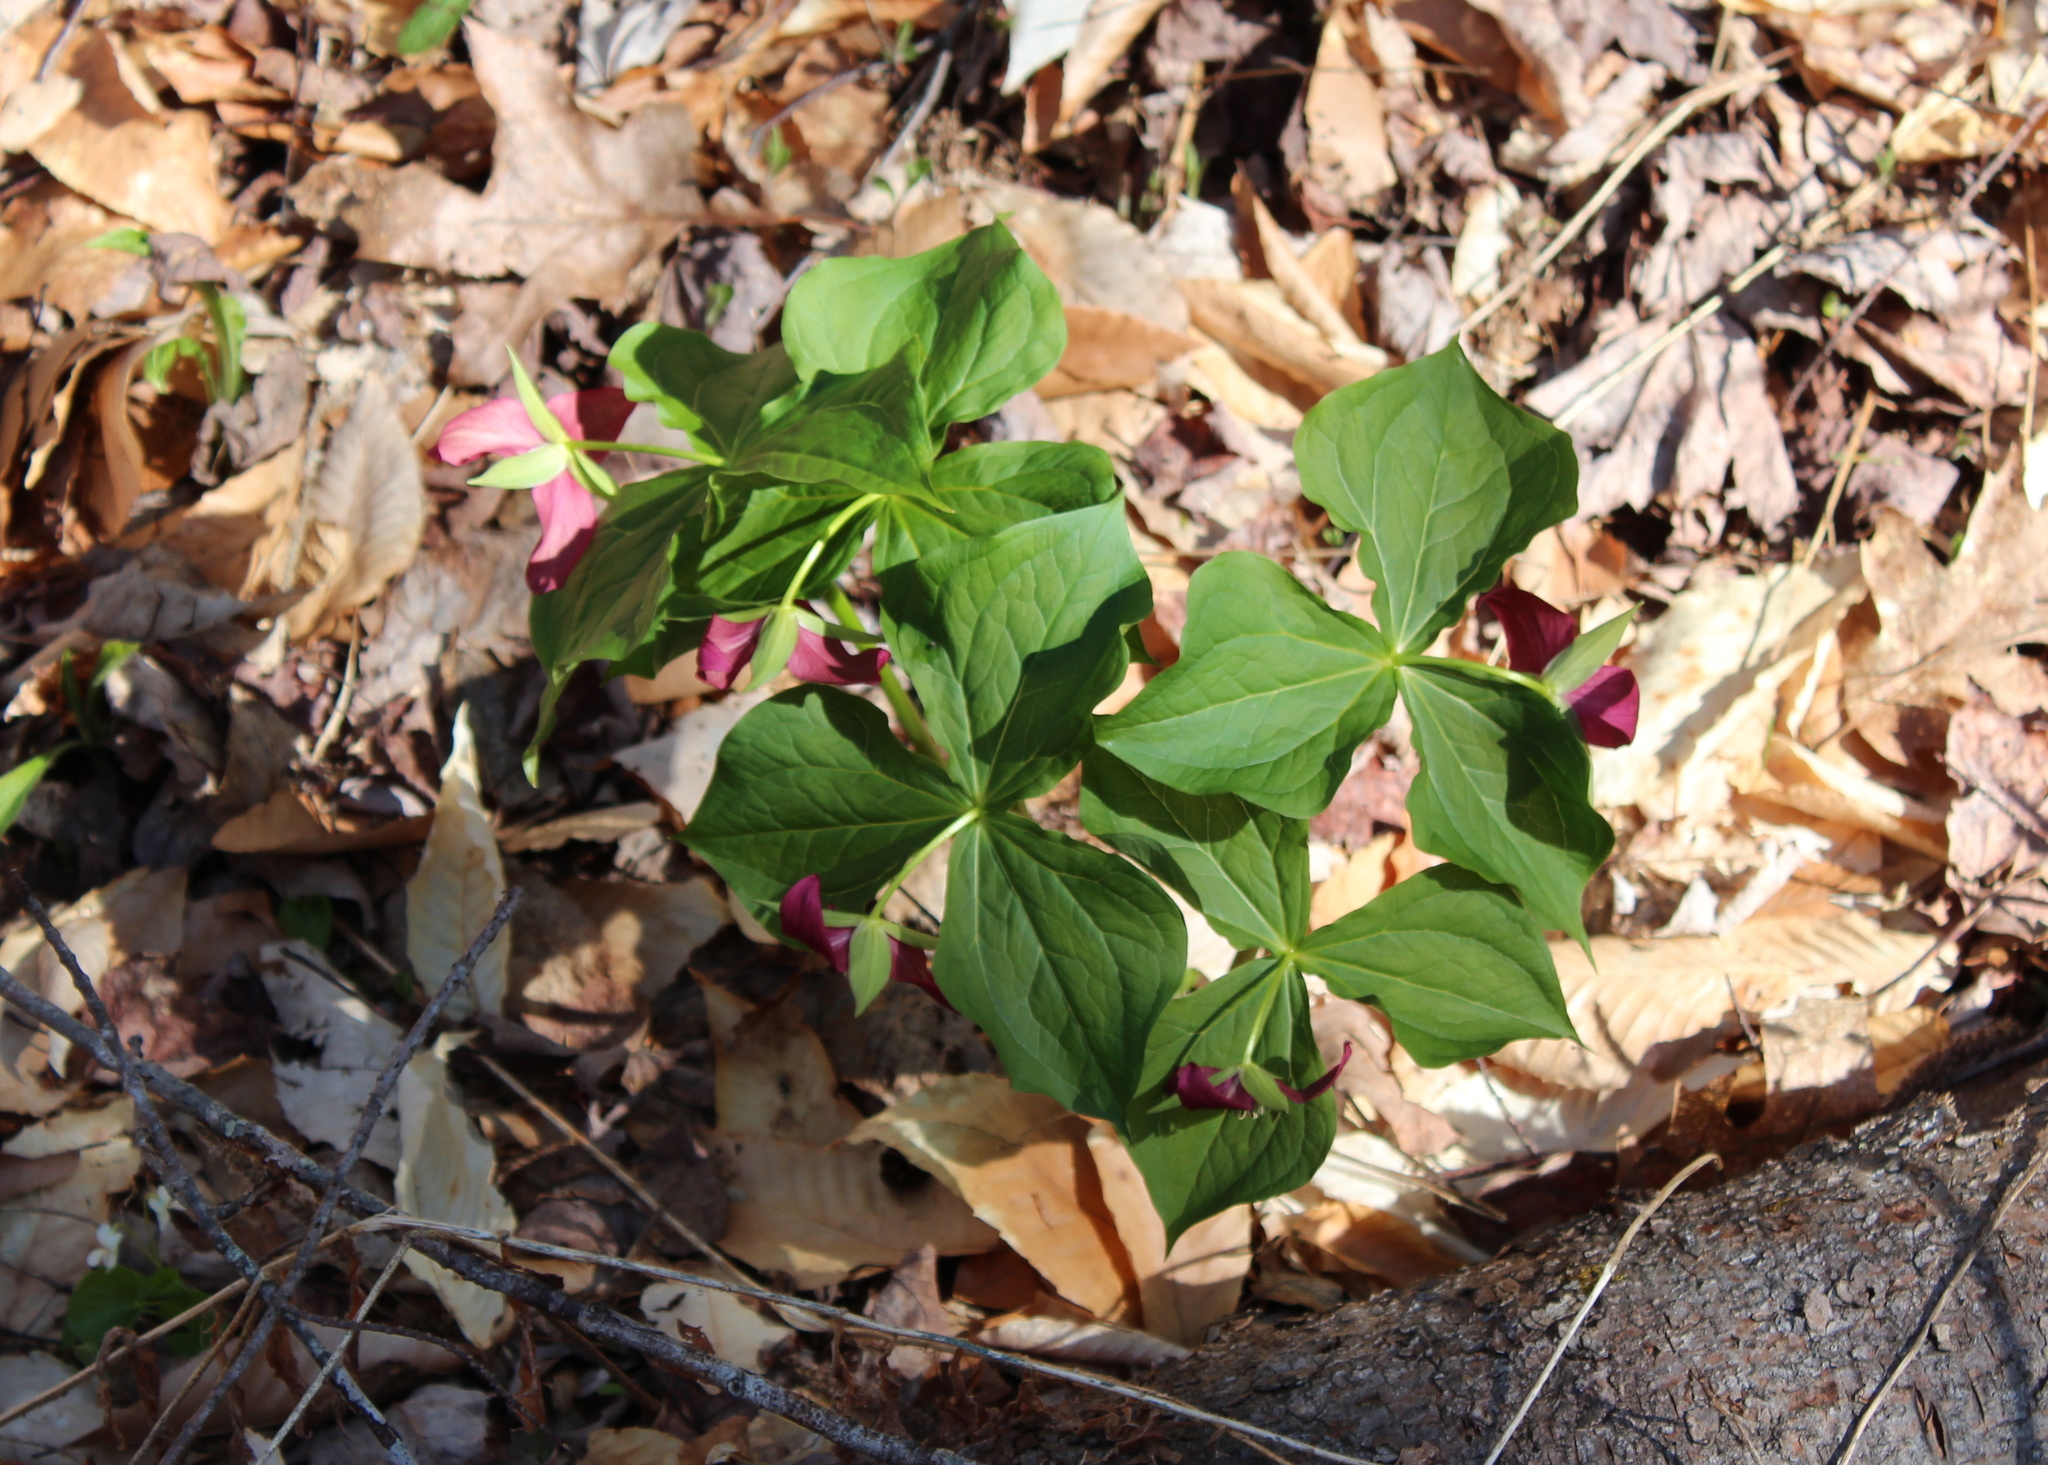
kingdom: Plantae
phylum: Tracheophyta
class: Liliopsida
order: Liliales
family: Melanthiaceae
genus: Trillium
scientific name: Trillium erectum
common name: Purple trillium
